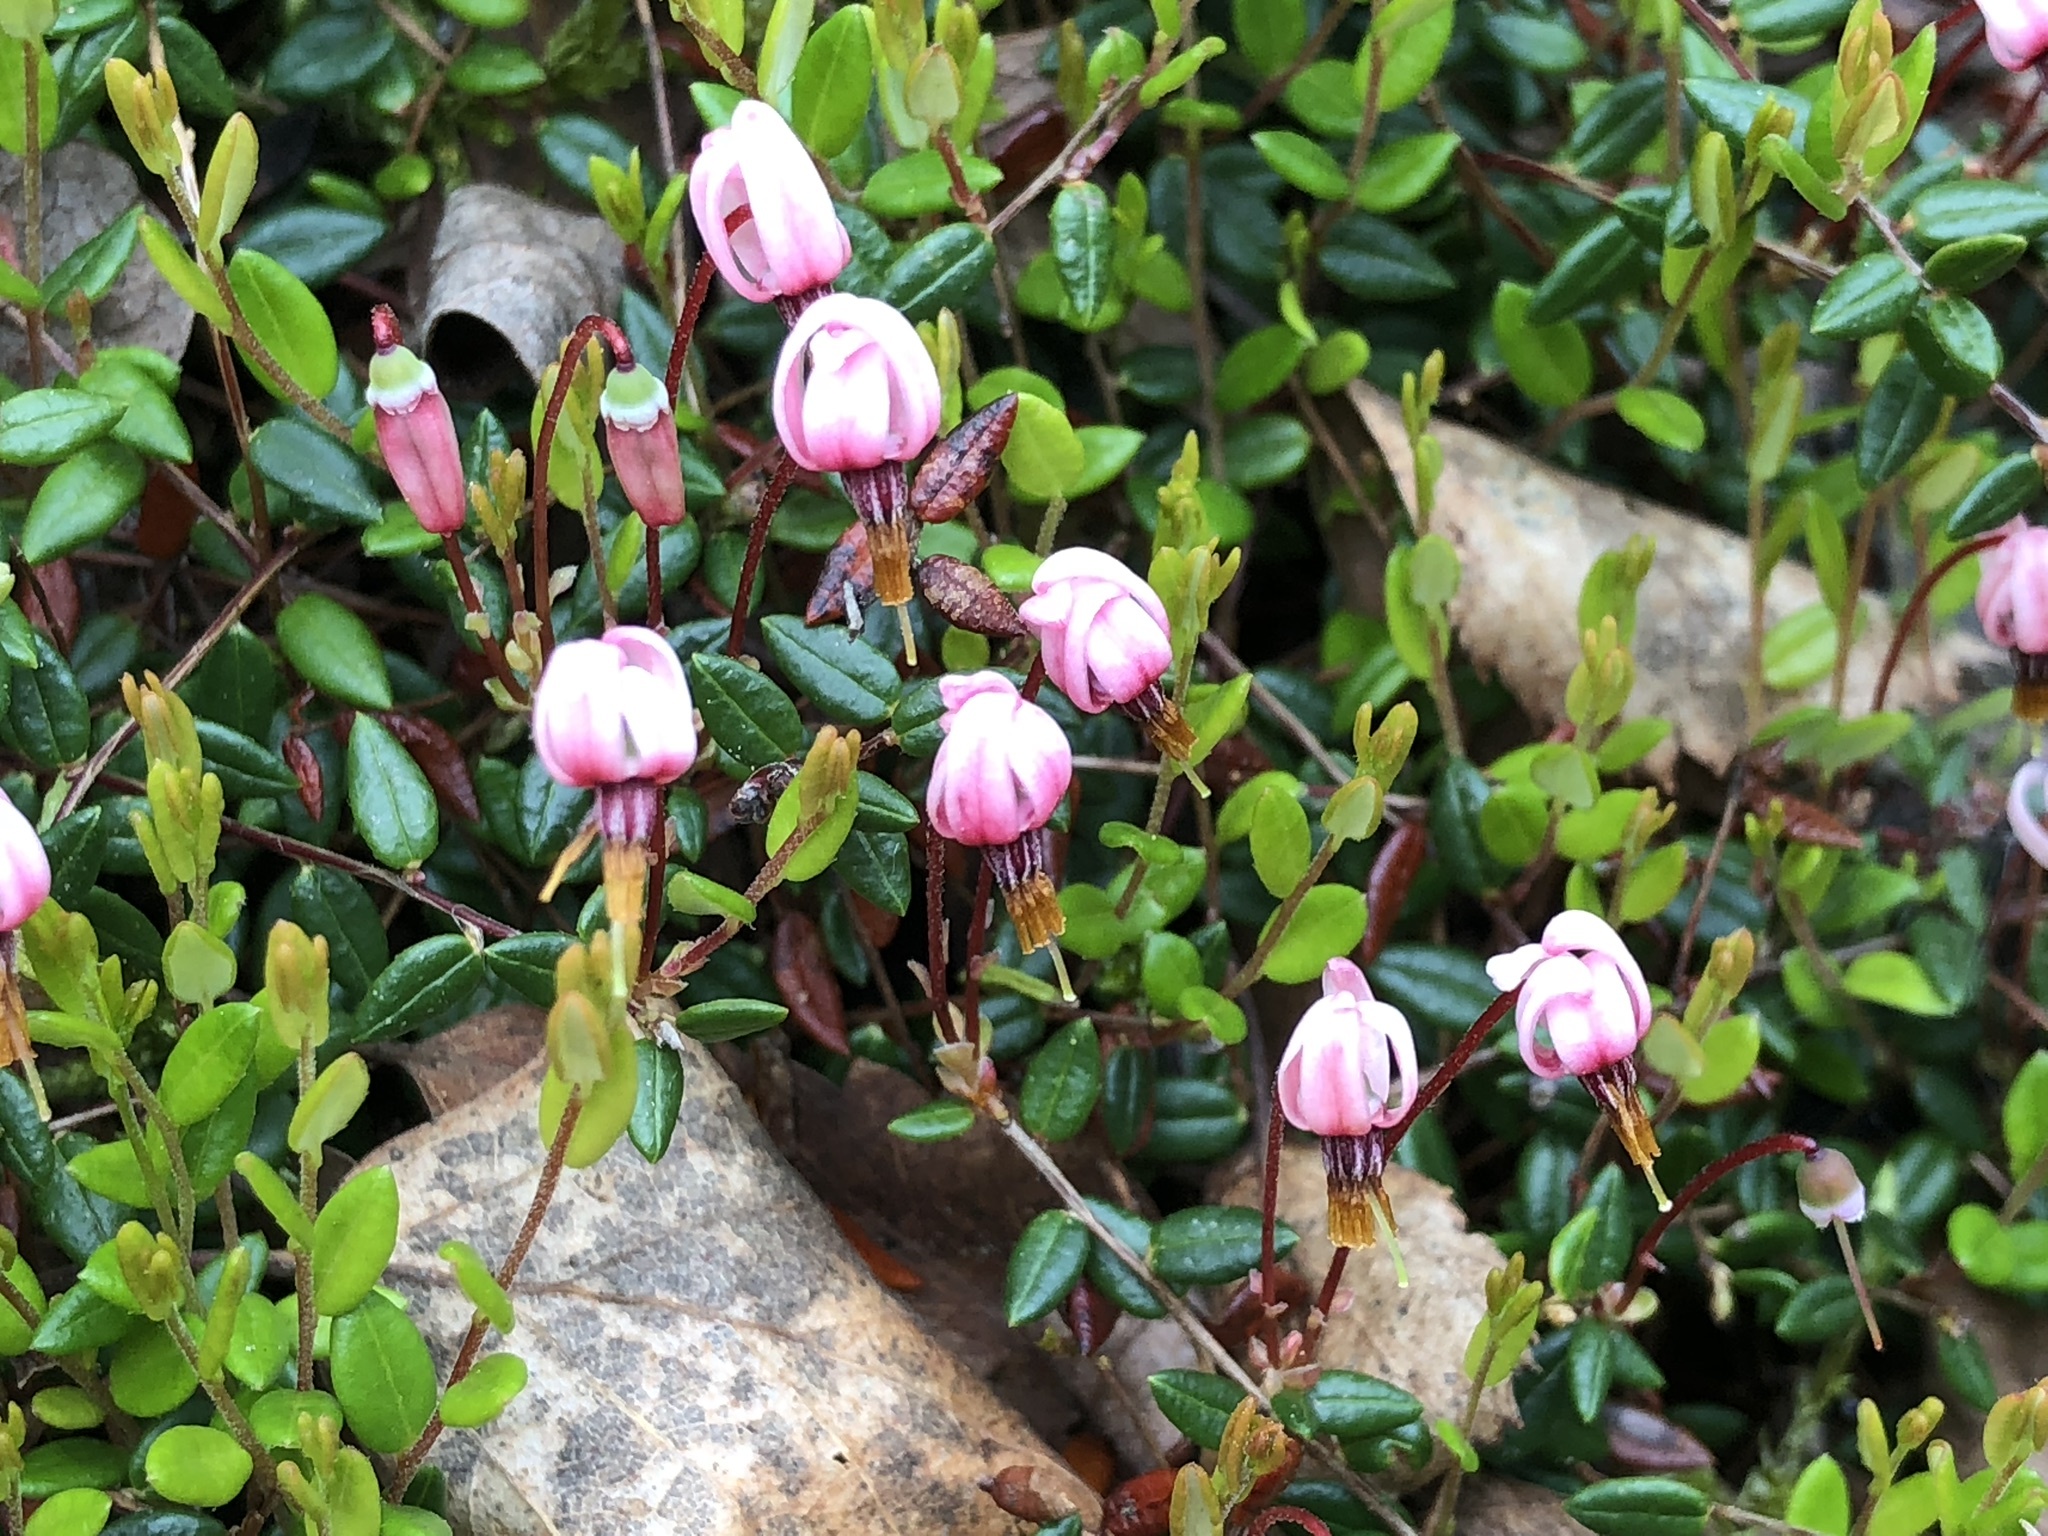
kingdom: Plantae
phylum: Tracheophyta
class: Magnoliopsida
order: Ericales
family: Ericaceae
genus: Vaccinium
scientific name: Vaccinium oxycoccos
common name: Cranberry
